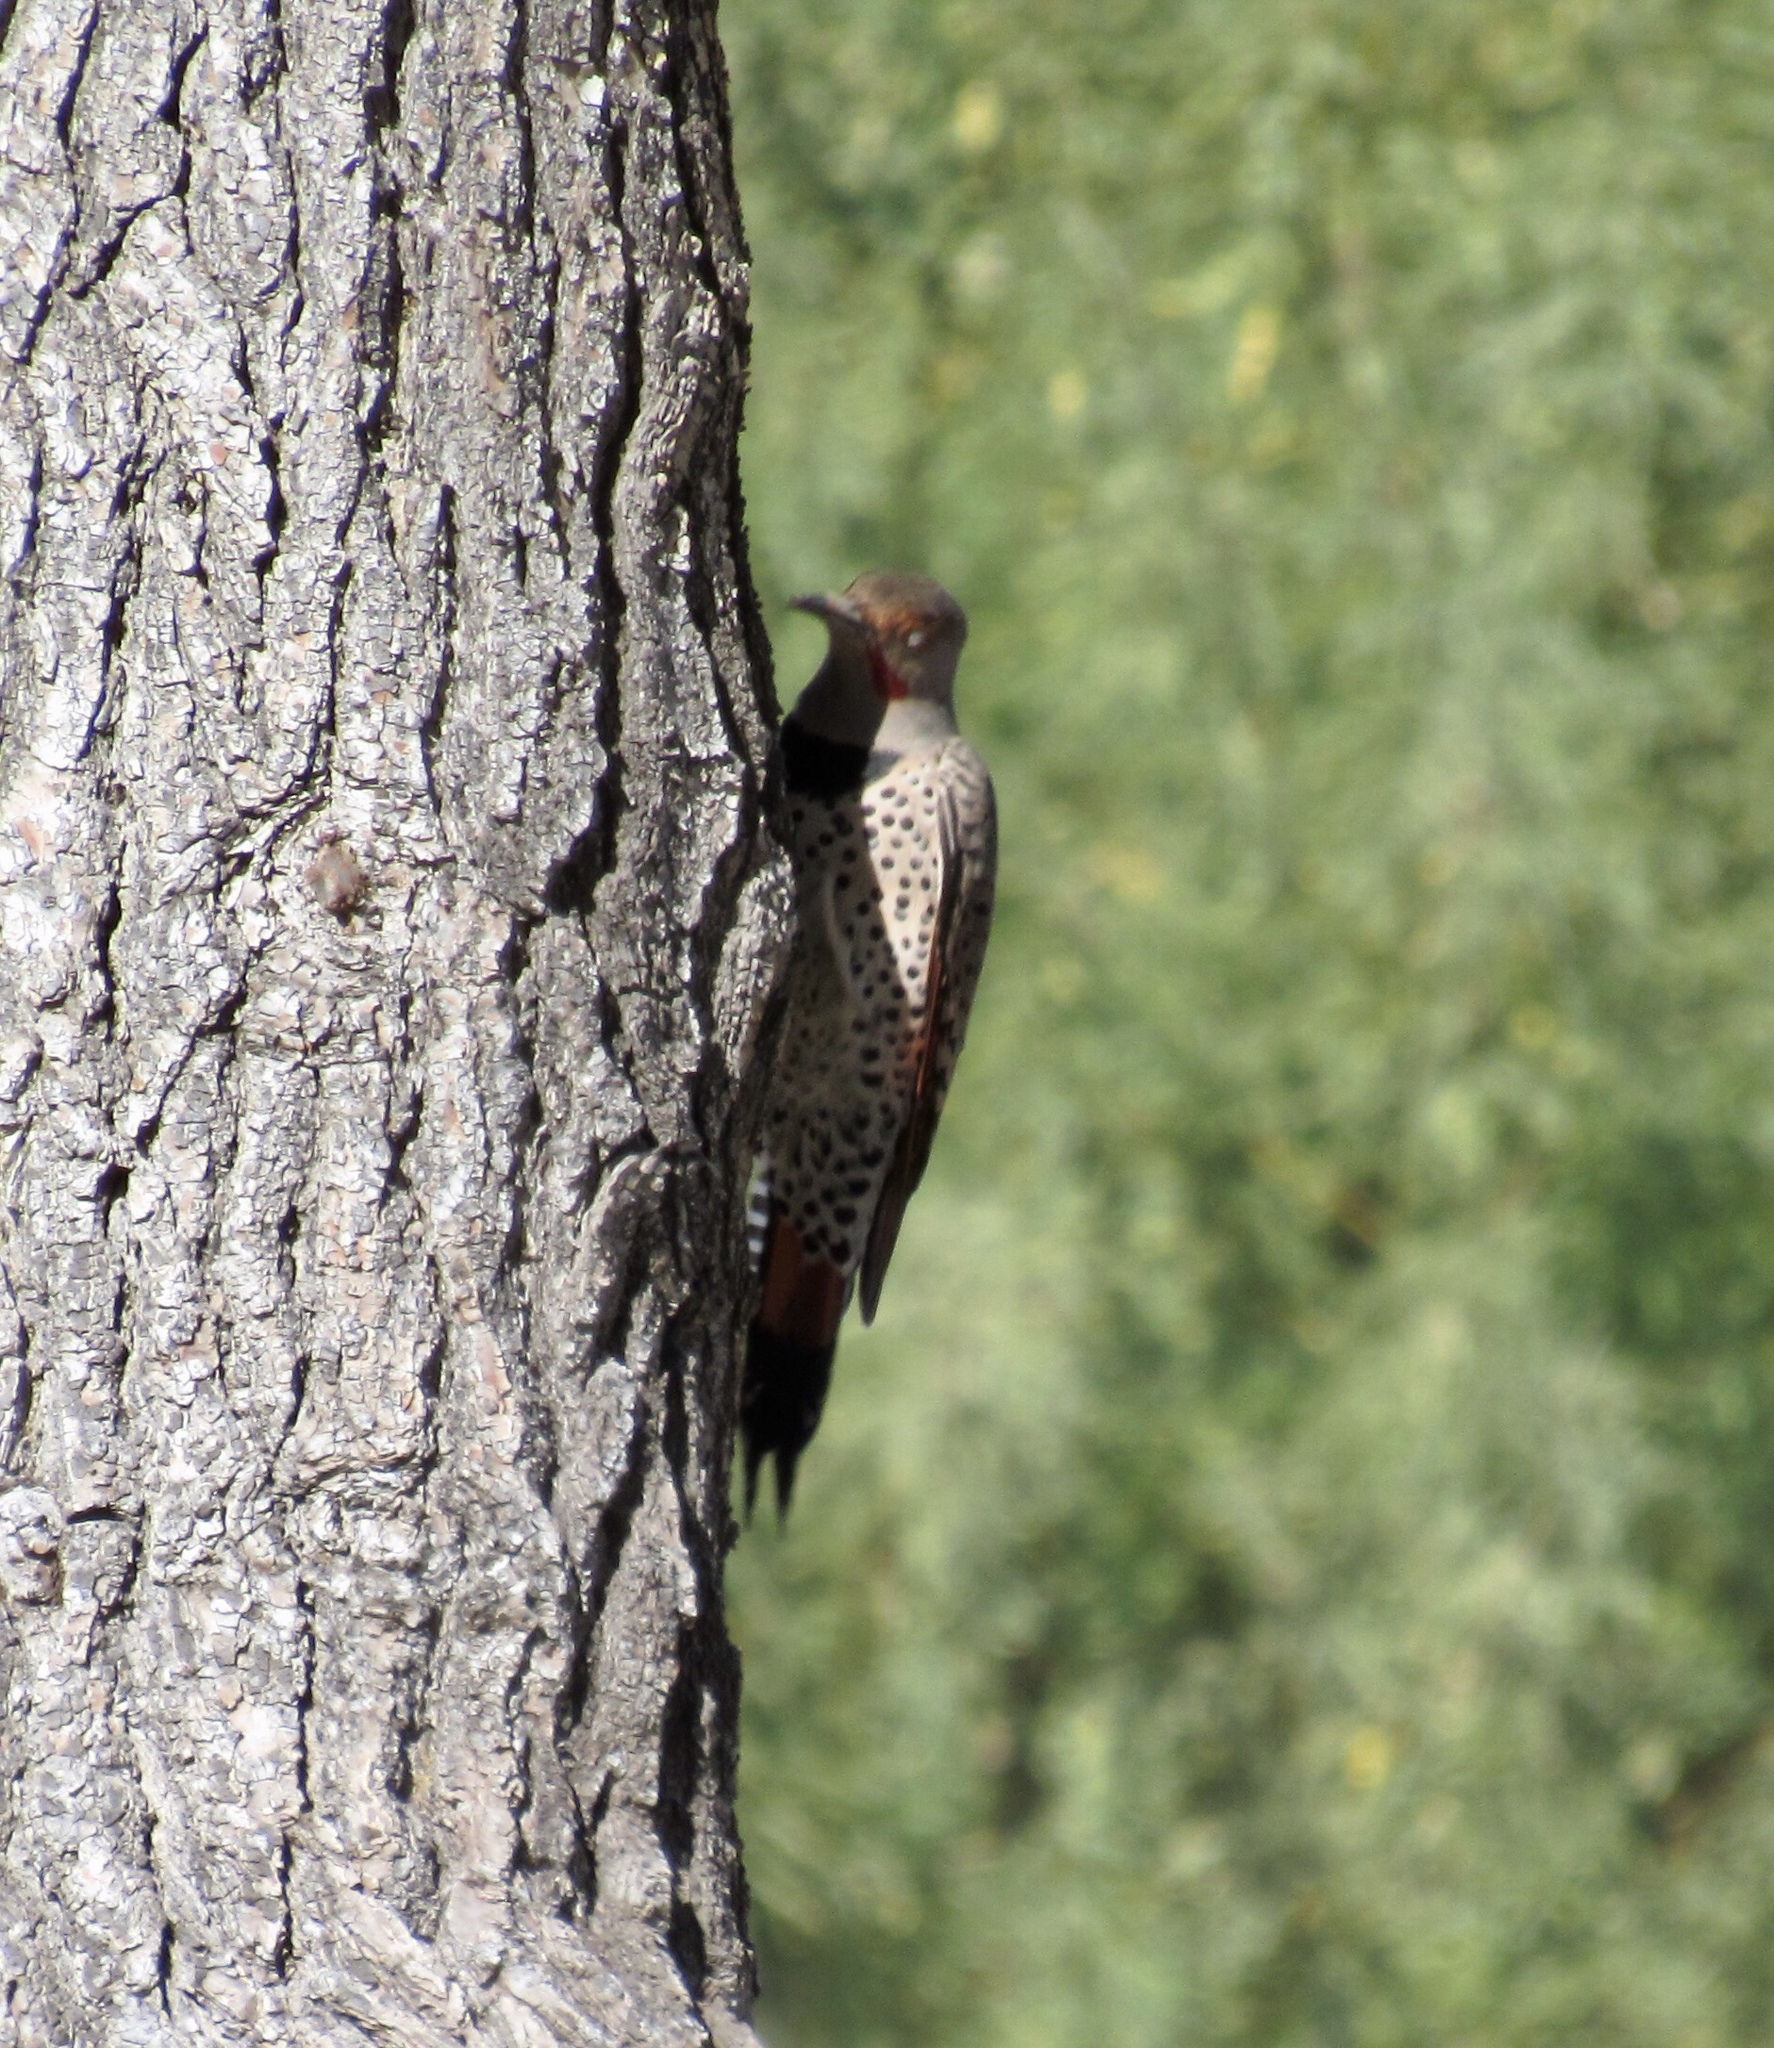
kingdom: Animalia
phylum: Chordata
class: Aves
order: Piciformes
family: Picidae
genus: Colaptes
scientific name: Colaptes chrysoides
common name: Gilded flicker
